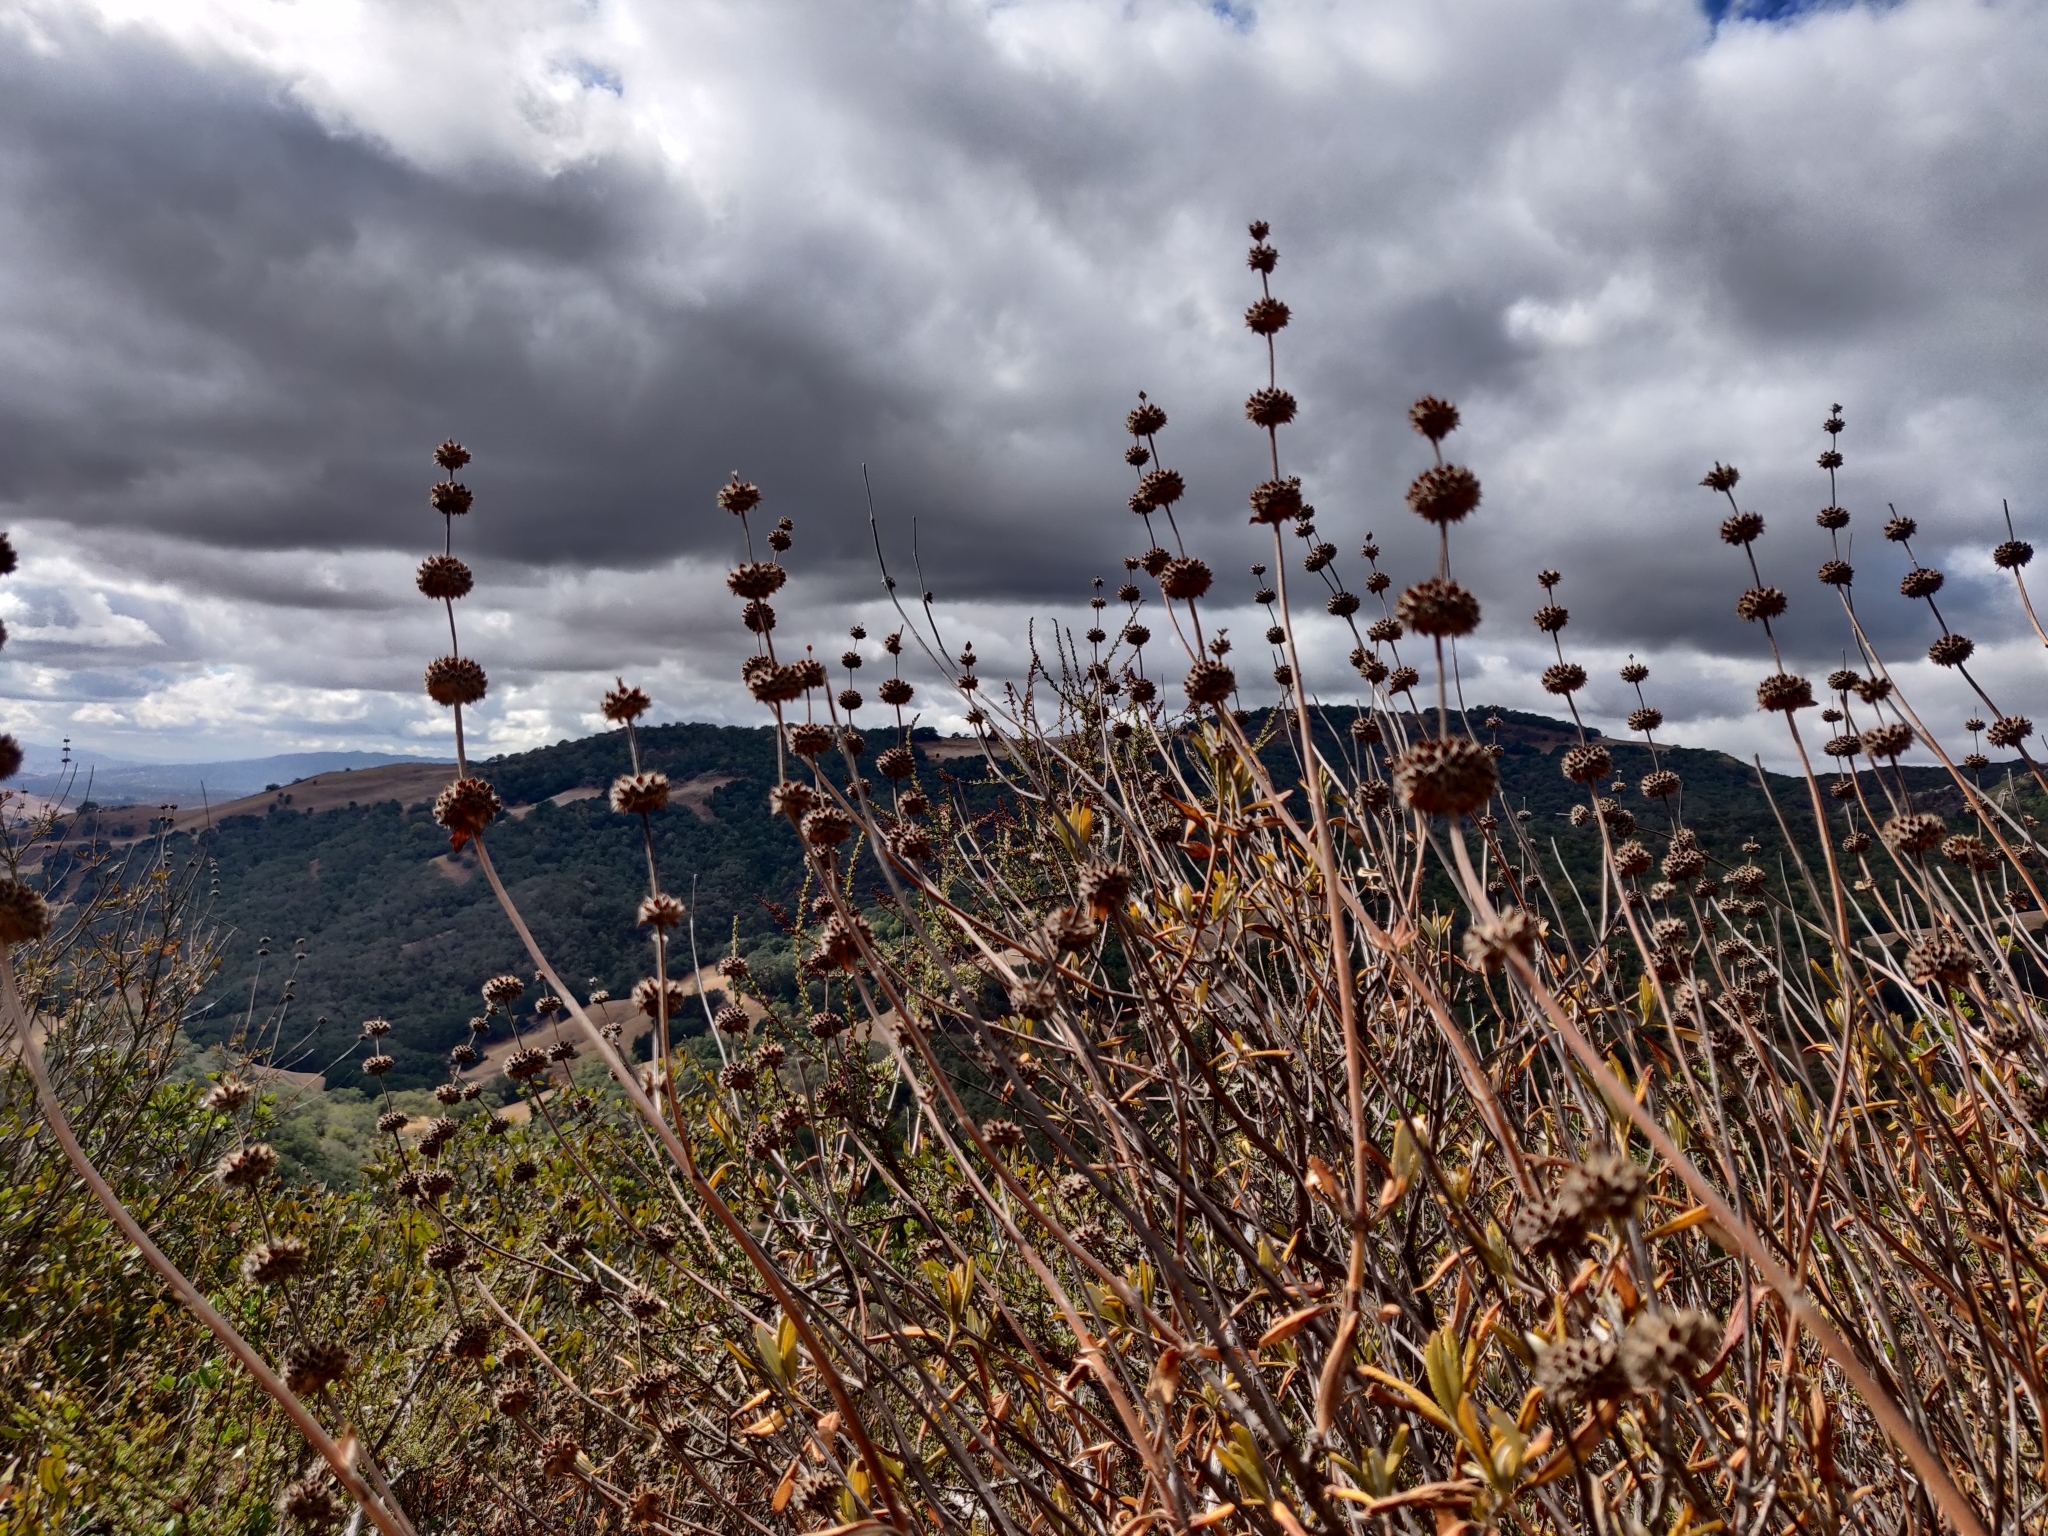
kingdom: Plantae
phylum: Tracheophyta
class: Magnoliopsida
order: Lamiales
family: Lamiaceae
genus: Salvia
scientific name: Salvia mellifera
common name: Black sage
